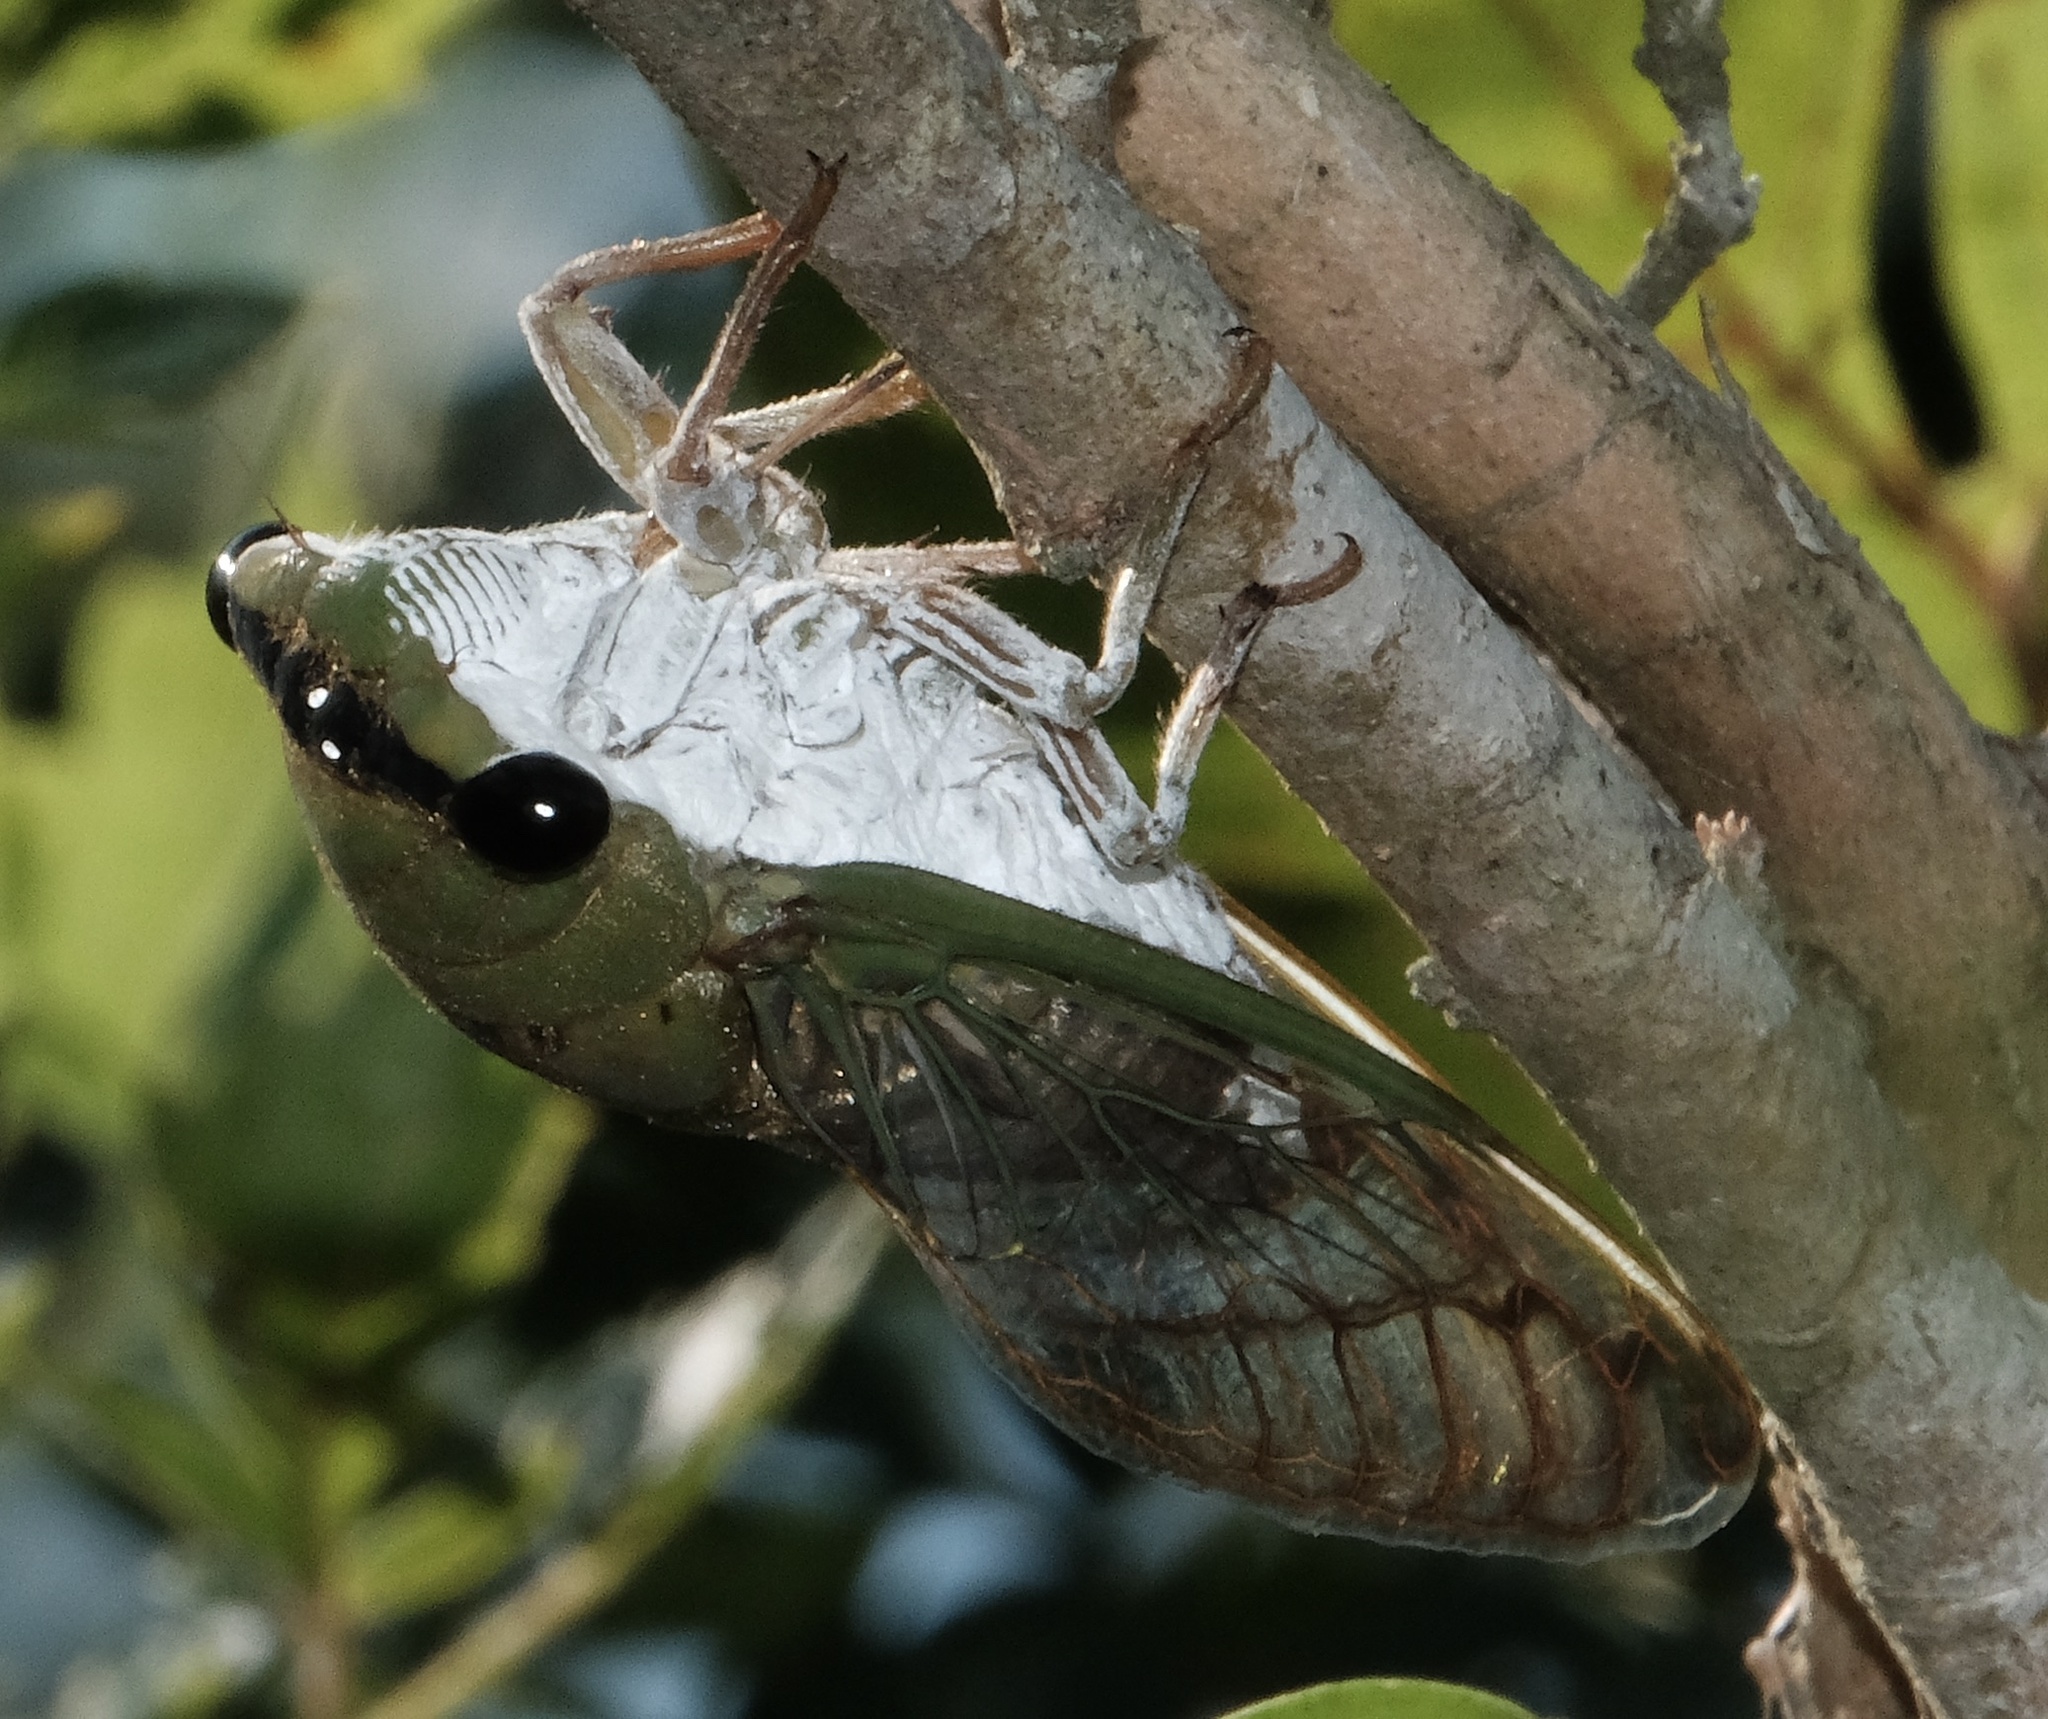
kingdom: Animalia
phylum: Arthropoda
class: Insecta
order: Hemiptera
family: Cicadidae
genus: Neotibicen
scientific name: Neotibicen superbus
